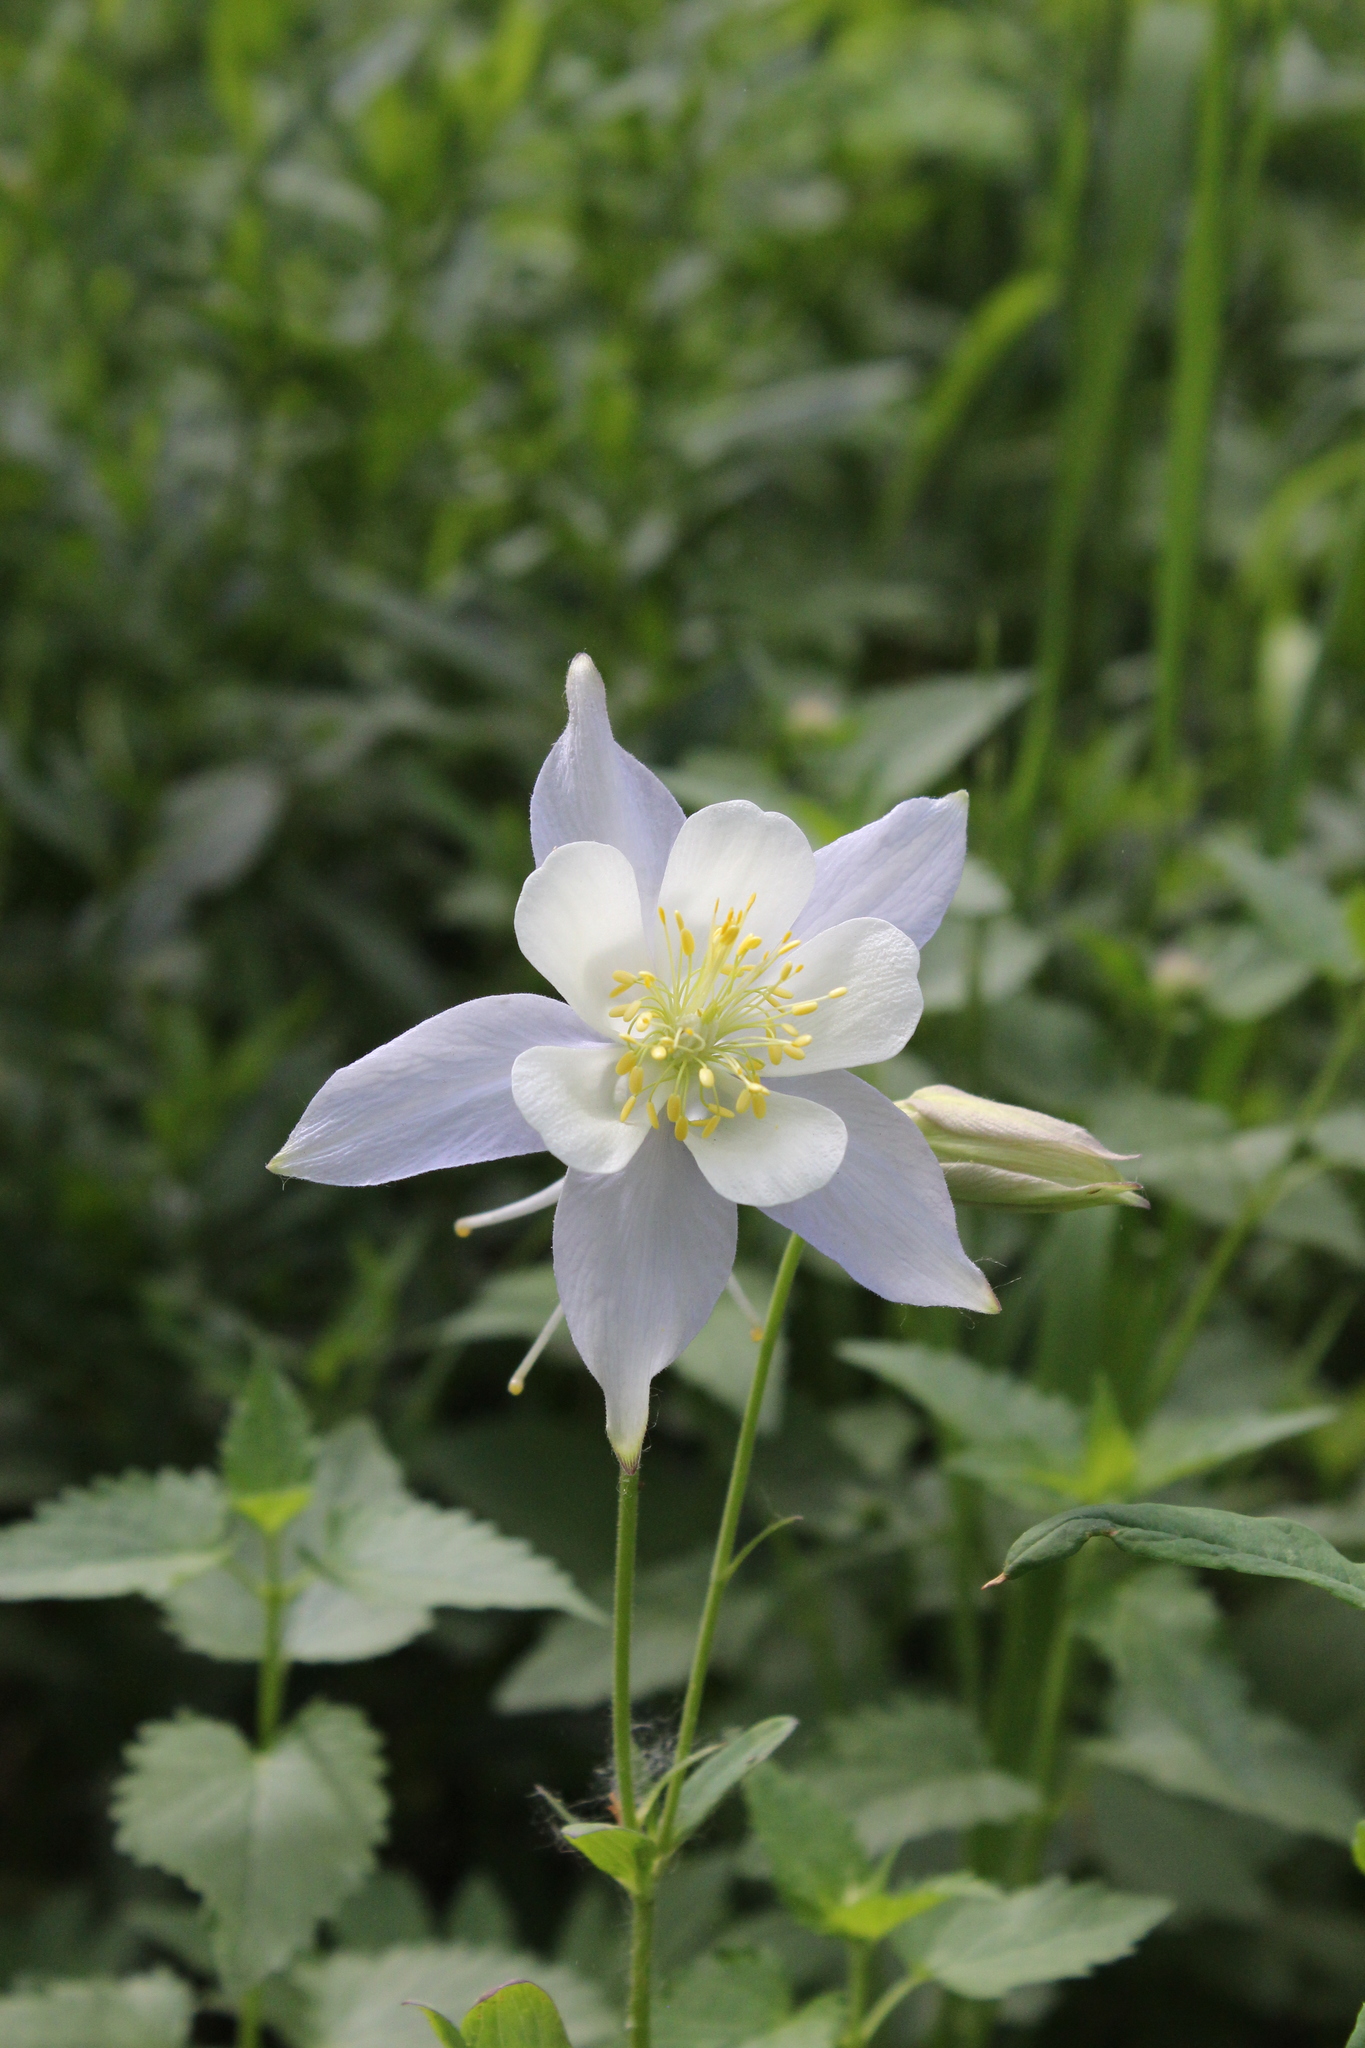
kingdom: Plantae
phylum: Tracheophyta
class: Magnoliopsida
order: Ranunculales
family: Ranunculaceae
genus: Aquilegia
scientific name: Aquilegia coerulea
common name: Rocky mountain columbine
